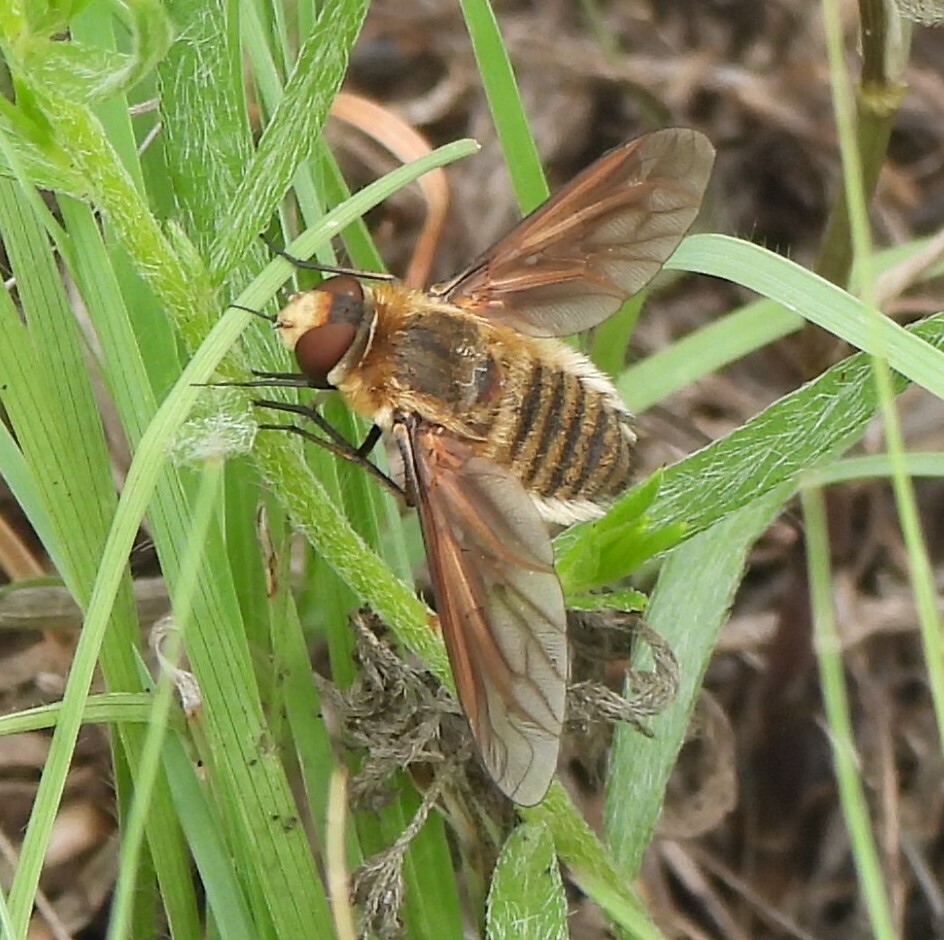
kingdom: Animalia
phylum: Arthropoda
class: Insecta
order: Diptera
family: Bombyliidae
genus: Poecilanthrax
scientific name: Poecilanthrax lucifer
